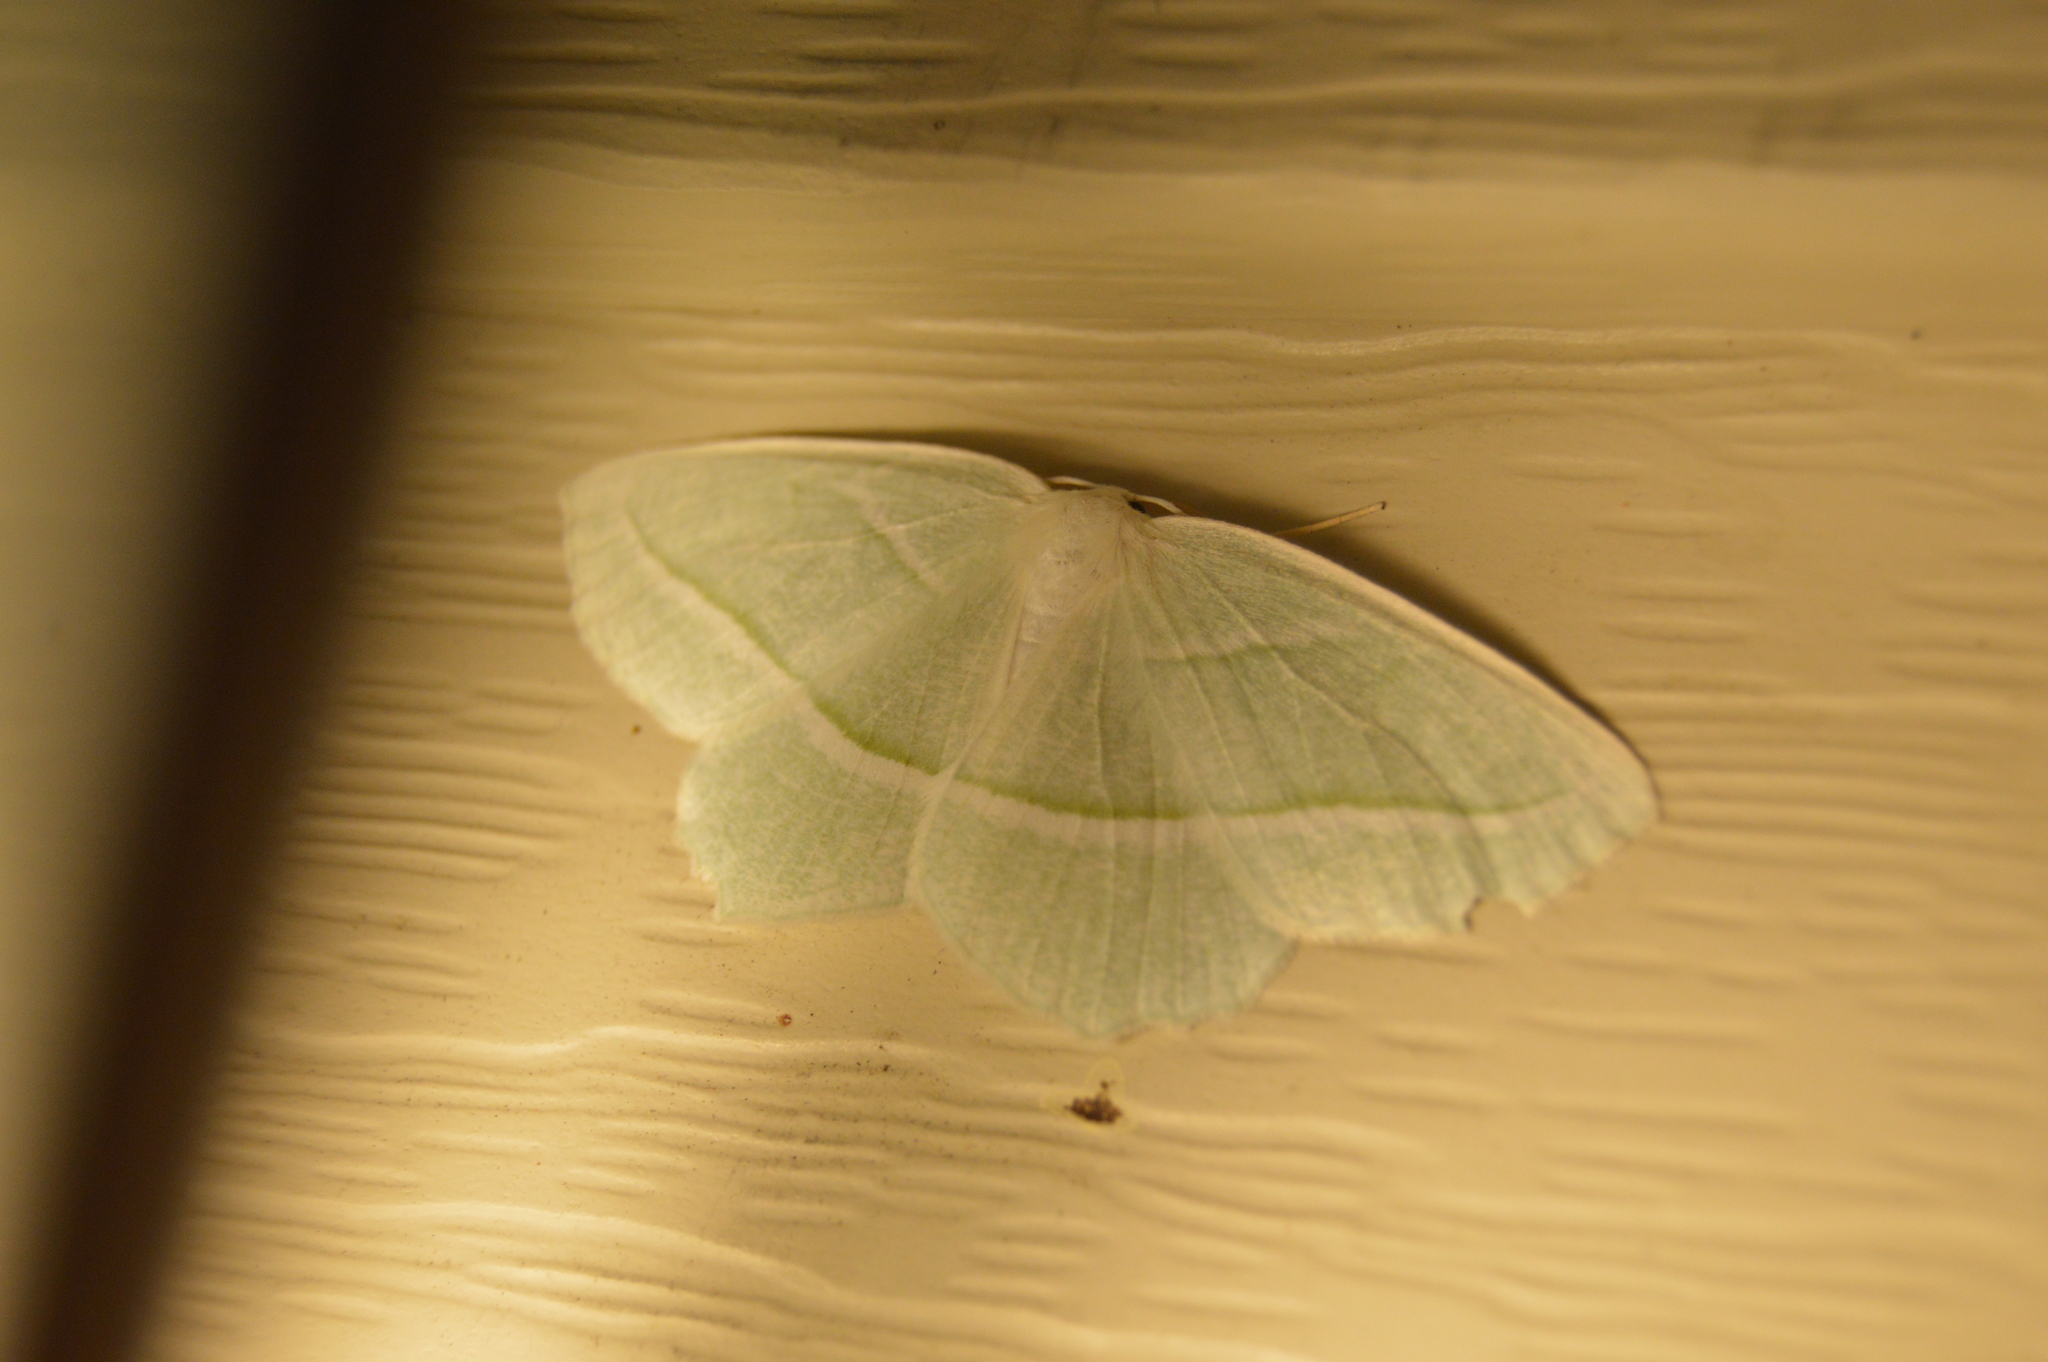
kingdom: Animalia
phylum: Arthropoda
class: Insecta
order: Lepidoptera
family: Geometridae
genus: Campaea
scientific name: Campaea perlata
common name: Fringed looper
